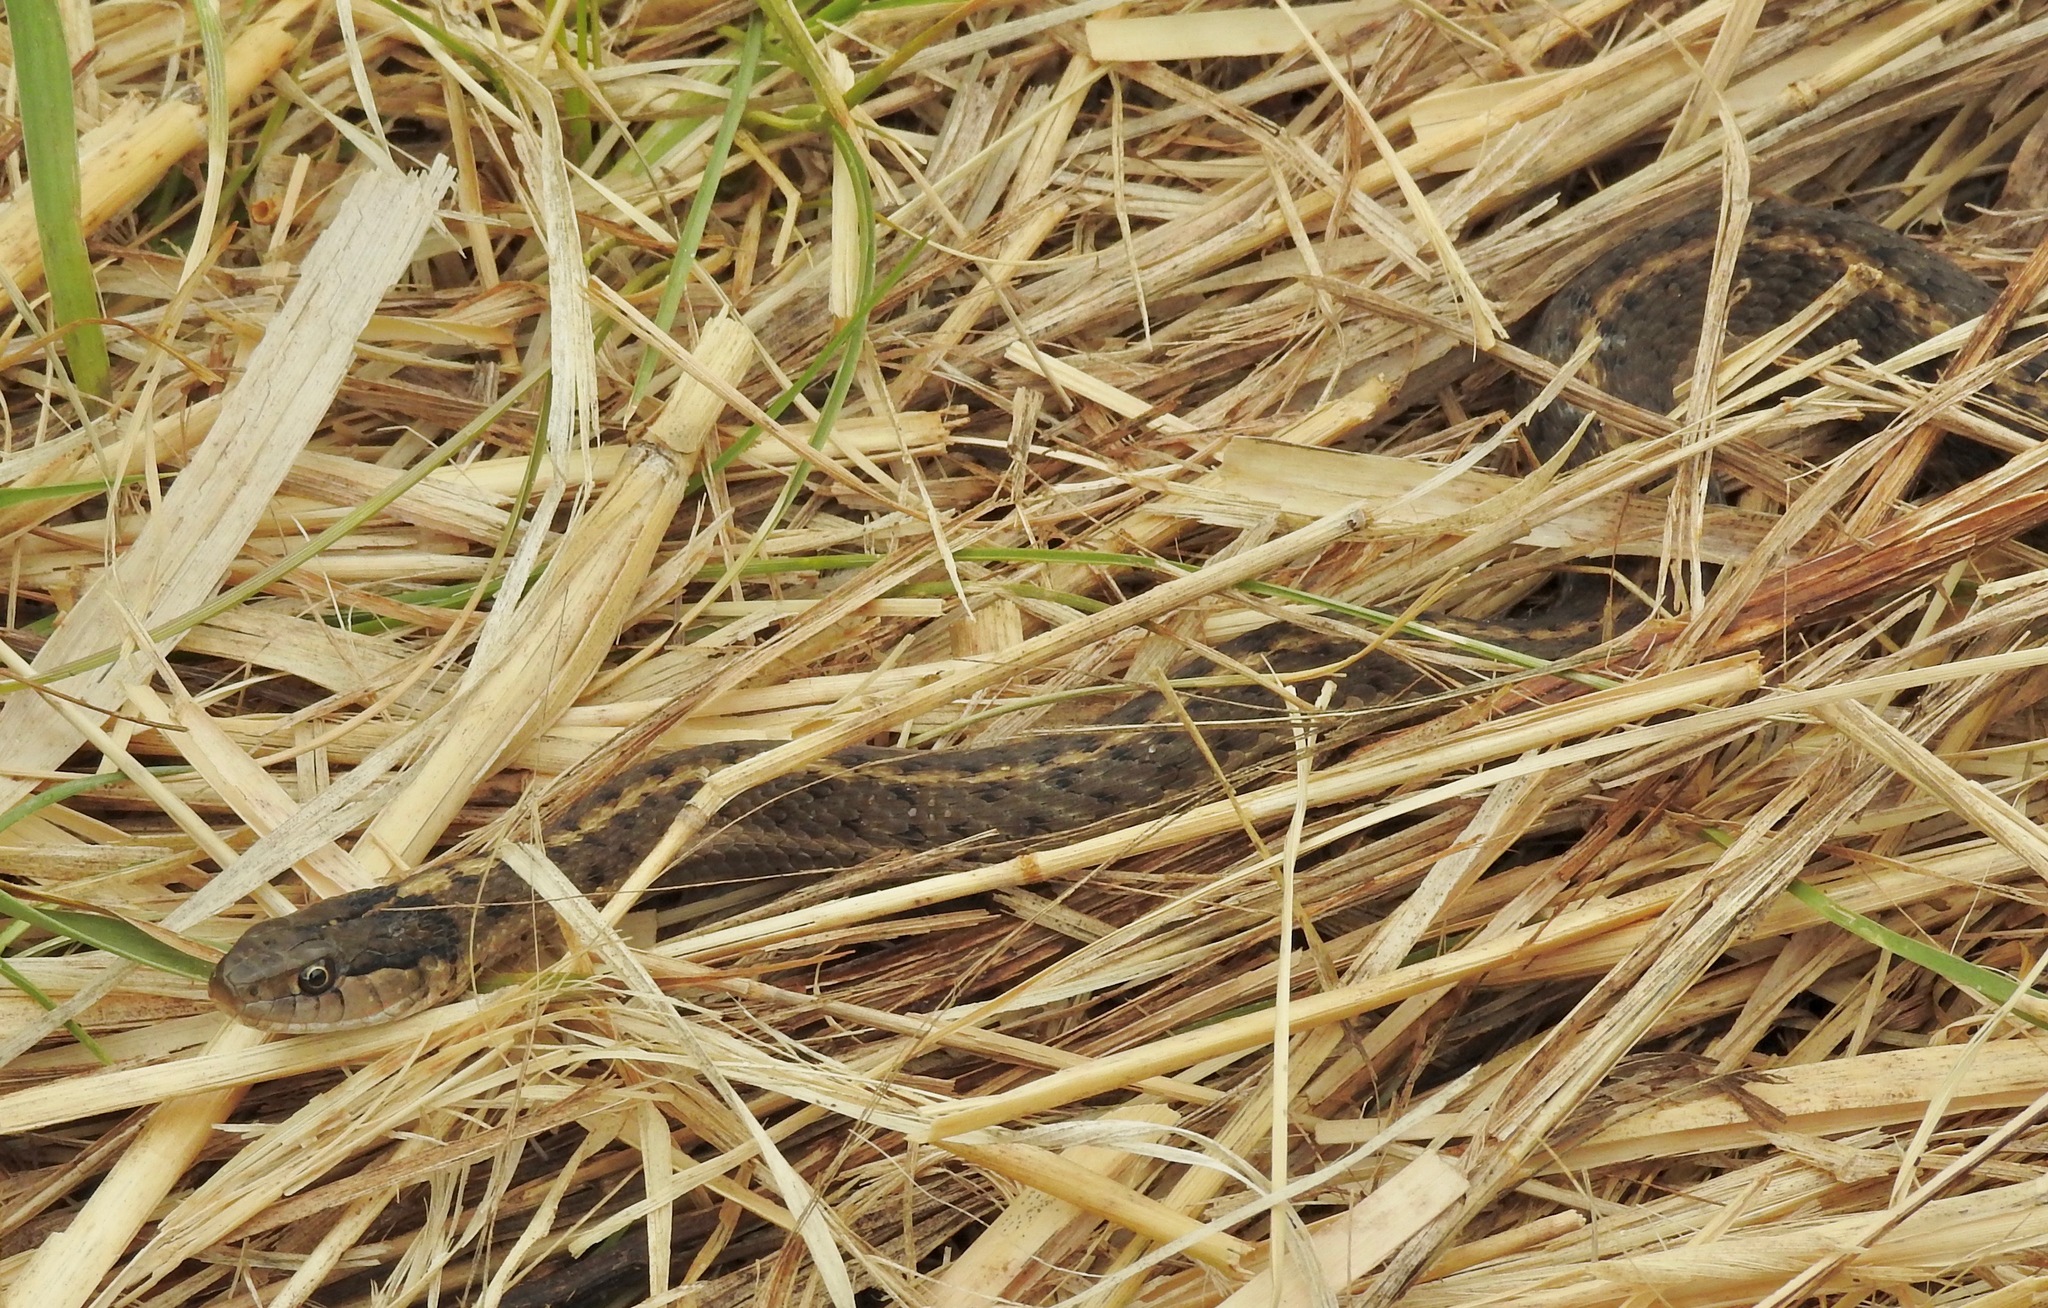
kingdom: Animalia
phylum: Chordata
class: Squamata
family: Colubridae
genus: Thamnophis
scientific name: Thamnophis elegans
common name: Western terrestrial garter snake
